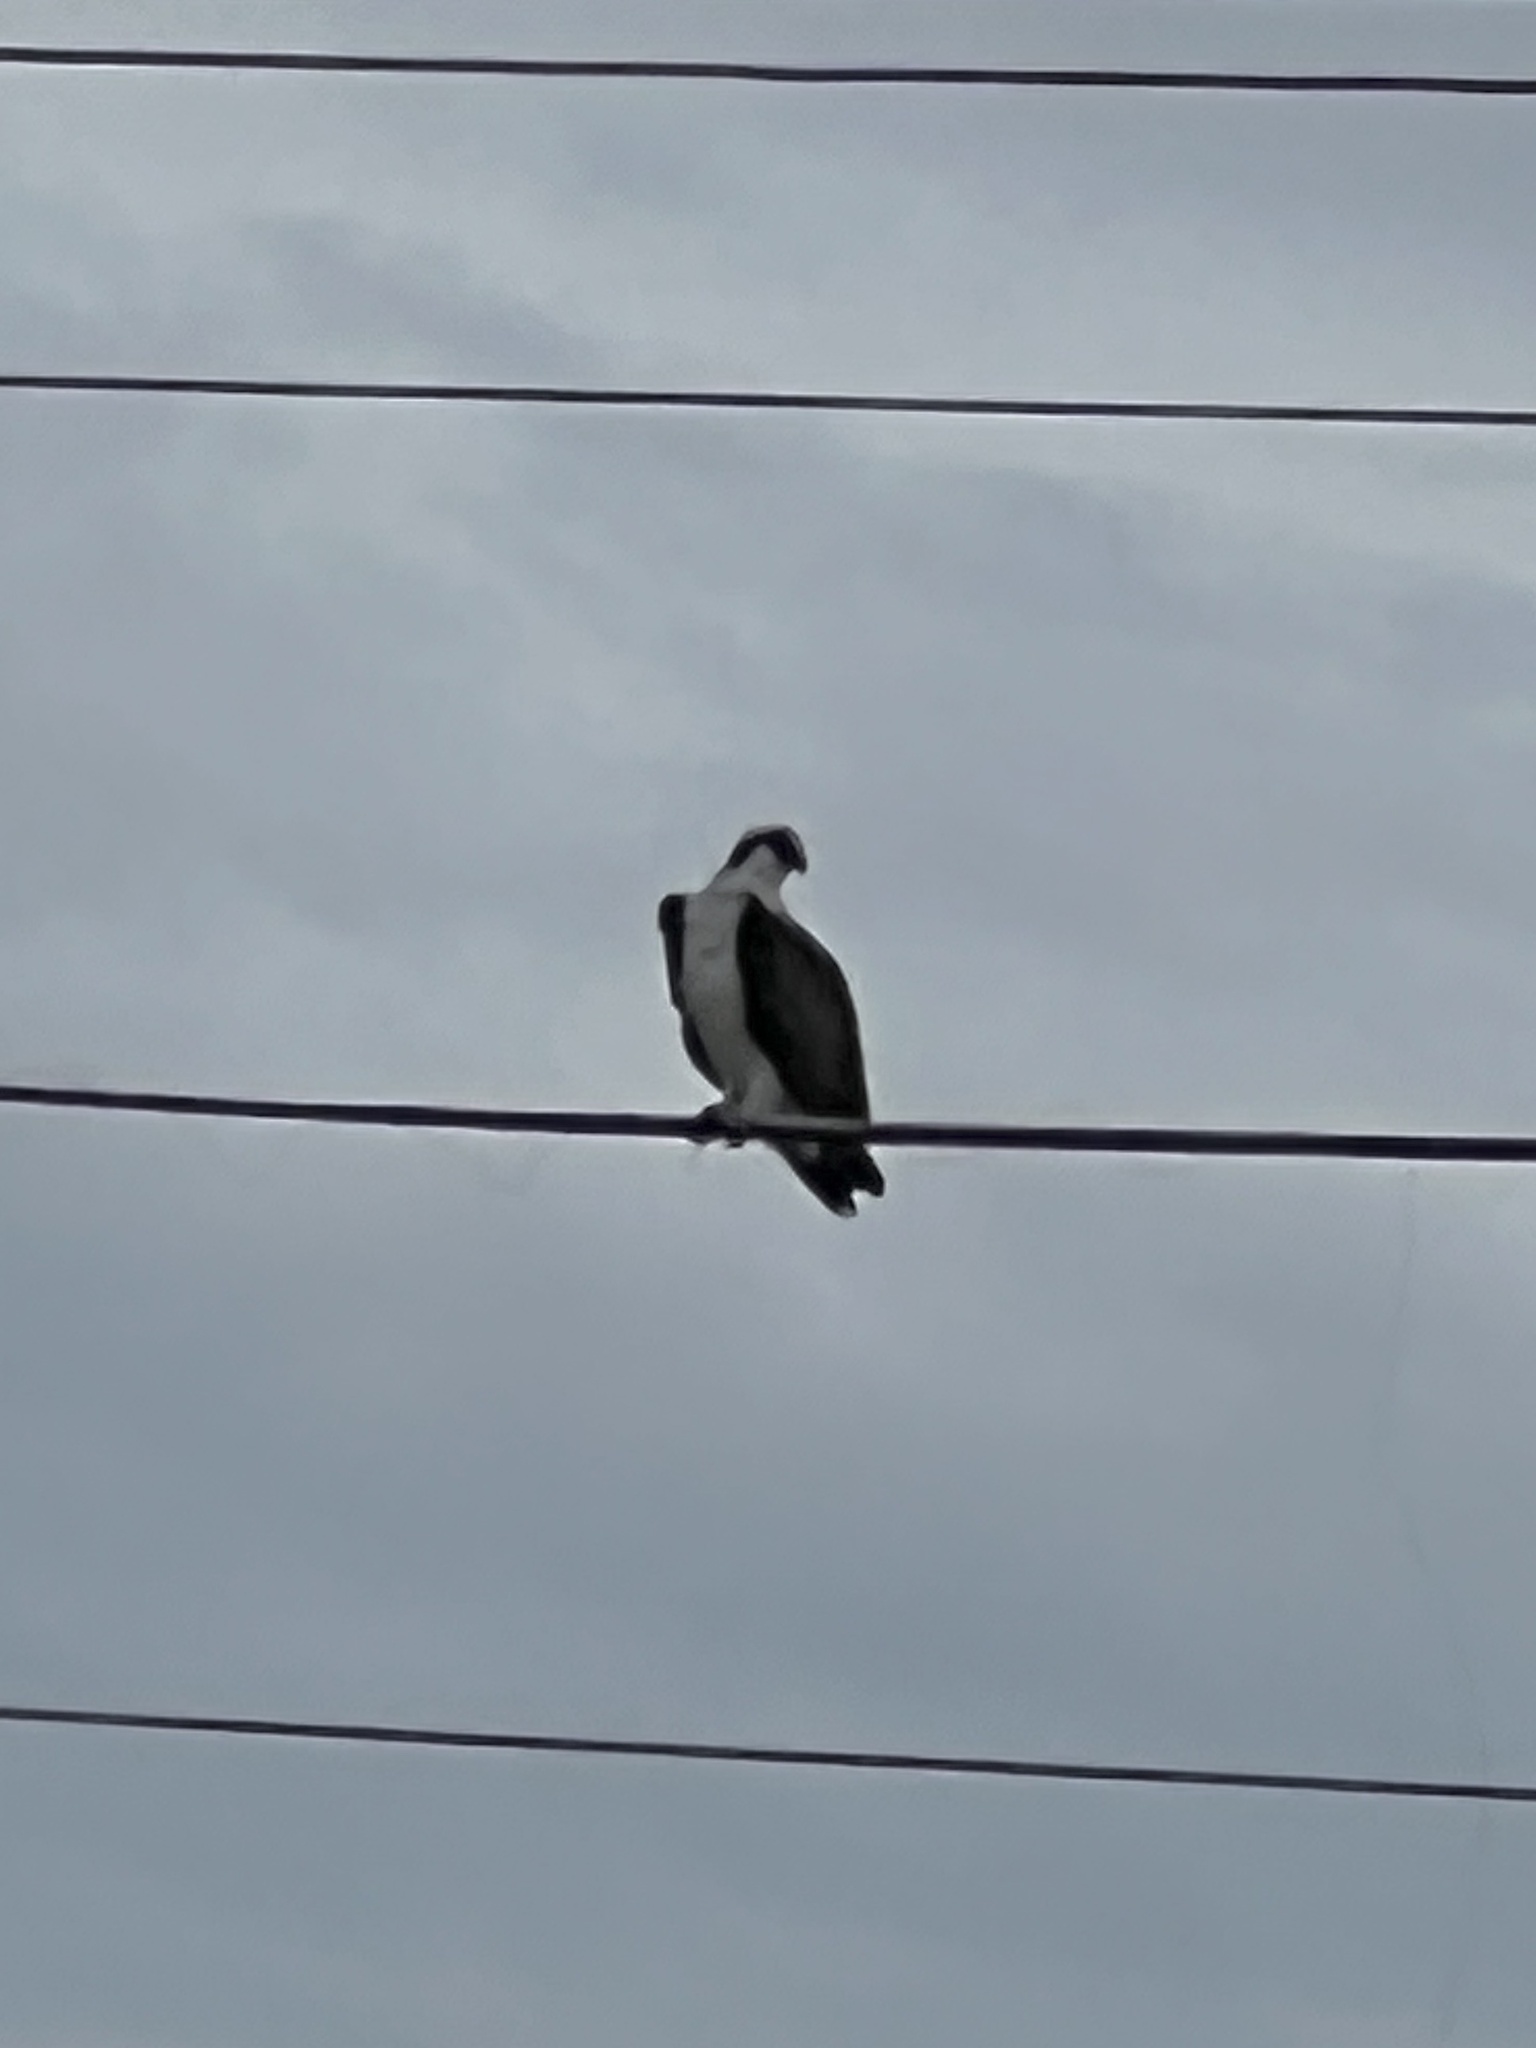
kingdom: Animalia
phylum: Chordata
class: Aves
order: Accipitriformes
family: Pandionidae
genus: Pandion
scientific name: Pandion haliaetus
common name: Osprey
